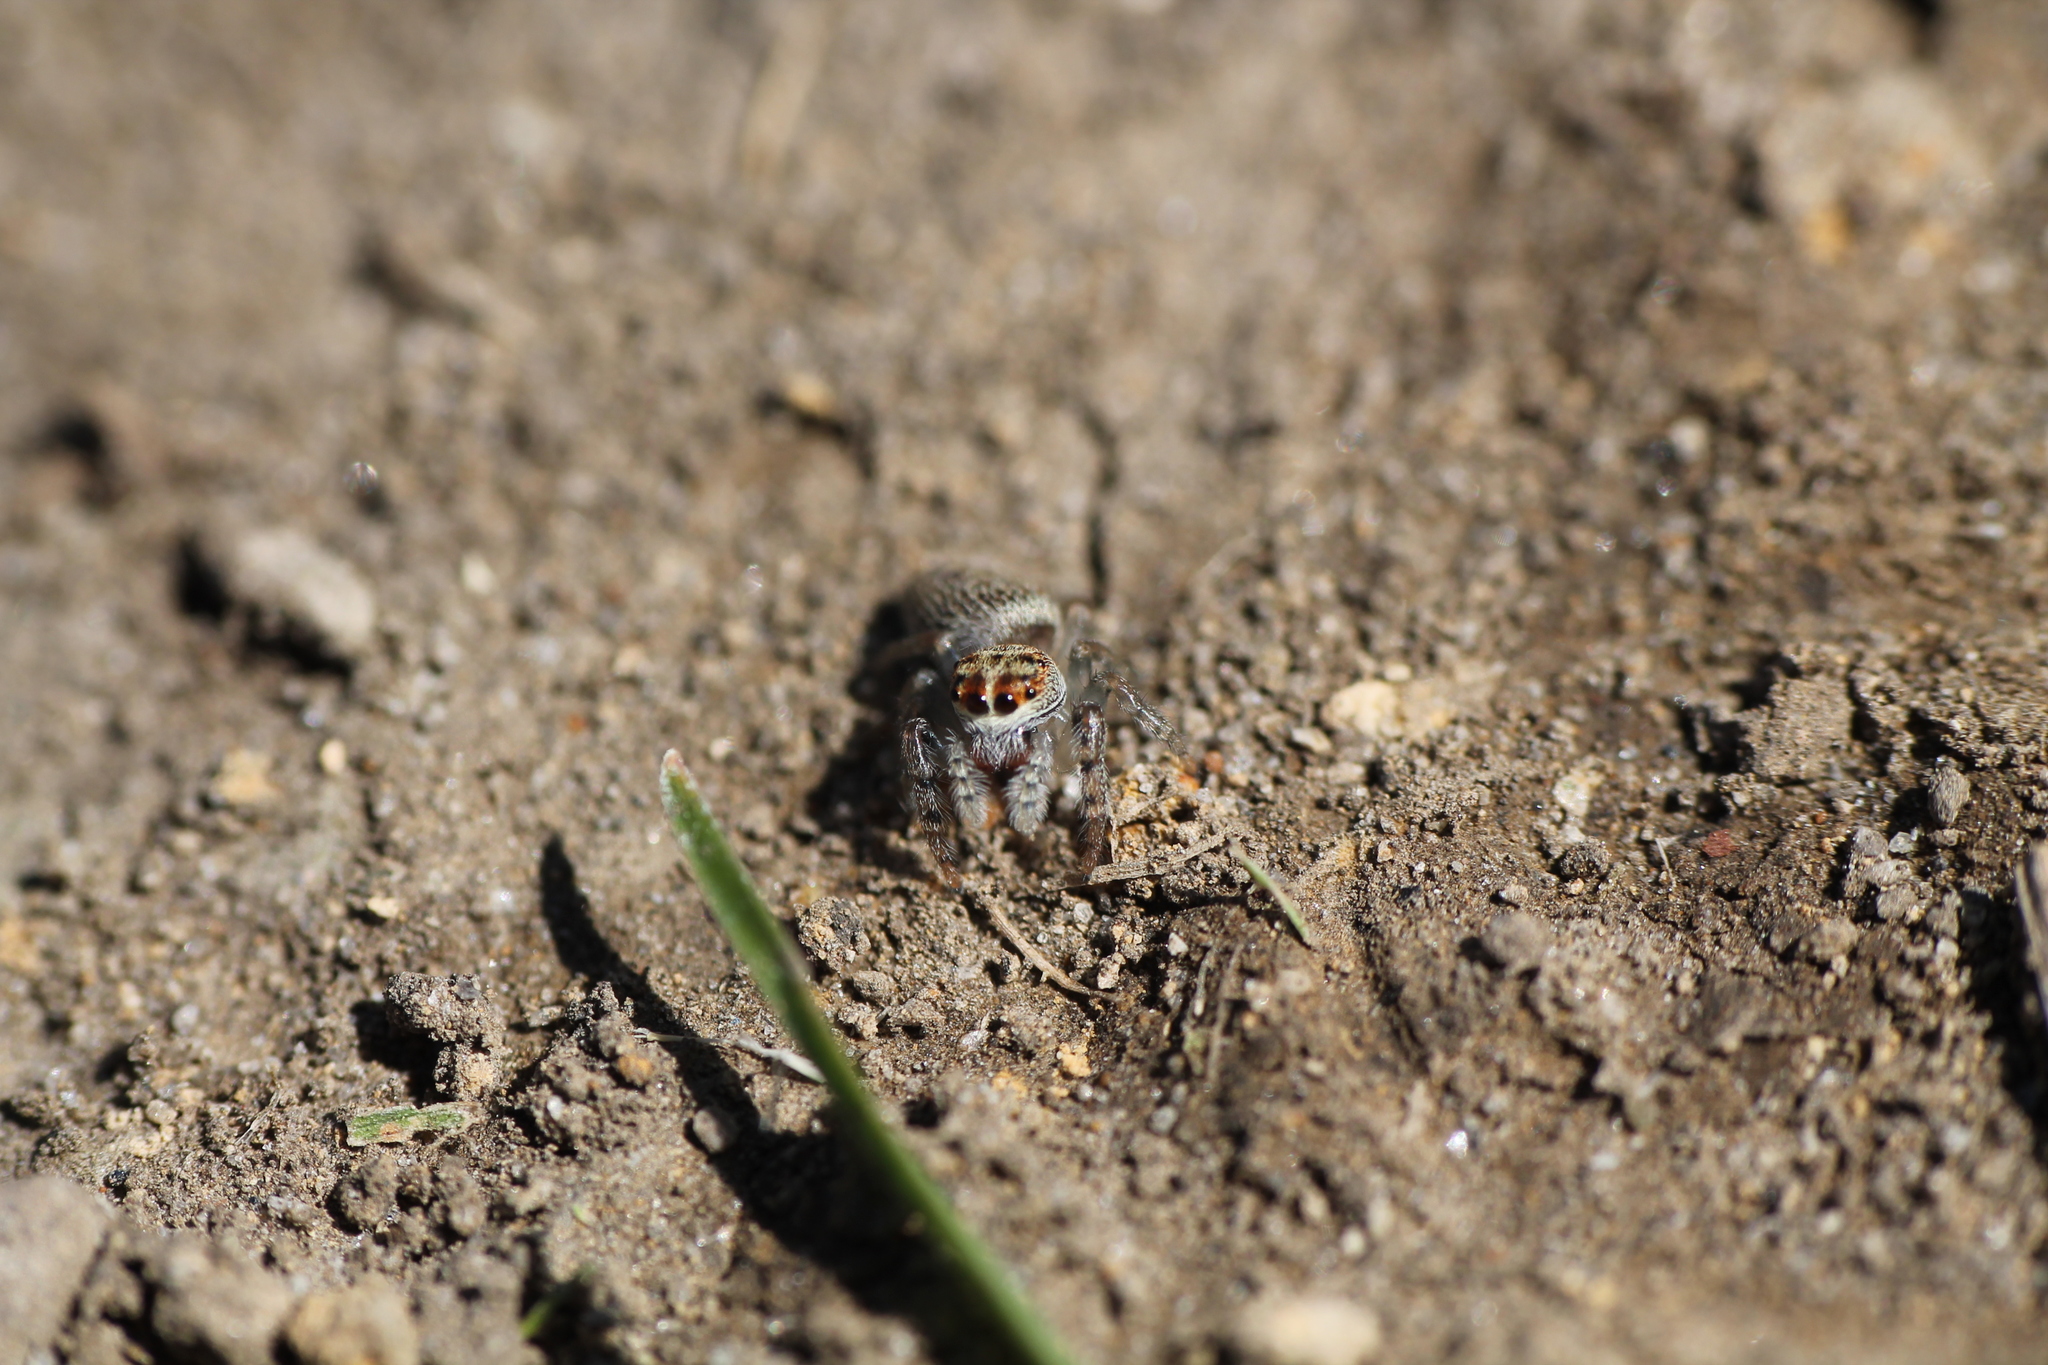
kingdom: Animalia
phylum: Arthropoda
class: Arachnida
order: Araneae
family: Salticidae
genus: Opisthoncus
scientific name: Opisthoncus polyphemus
